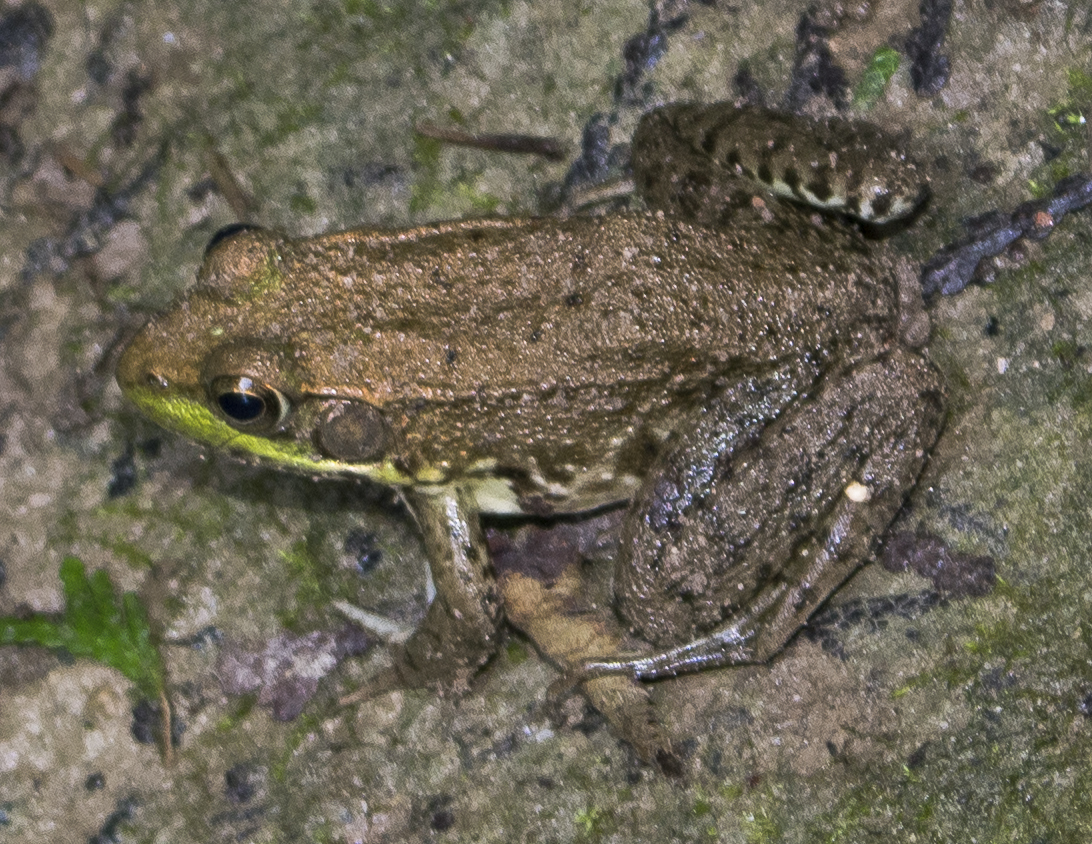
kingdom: Animalia
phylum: Chordata
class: Amphibia
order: Anura
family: Ranidae
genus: Lithobates
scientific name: Lithobates clamitans
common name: Green frog
